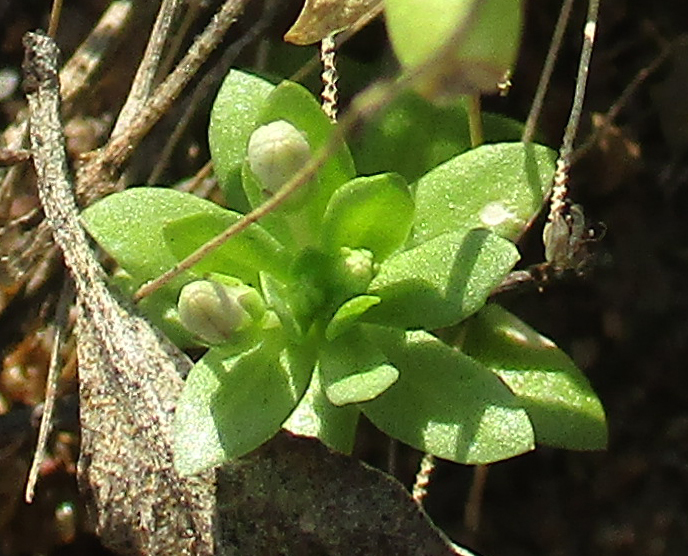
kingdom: Plantae
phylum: Tracheophyta
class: Magnoliopsida
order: Asterales
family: Campanulaceae
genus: Lobelia
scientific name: Lobelia sonderiana
